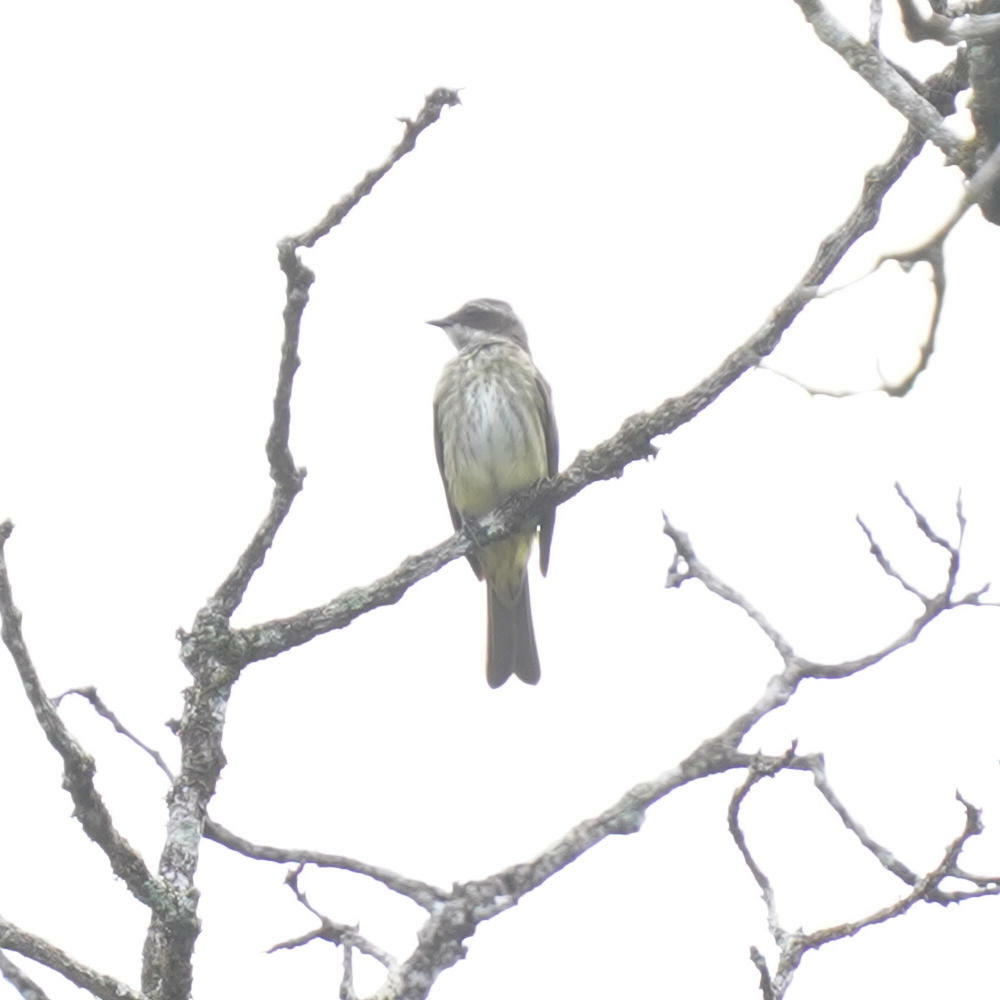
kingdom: Animalia
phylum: Chordata
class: Aves
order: Passeriformes
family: Tyrannidae
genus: Legatus
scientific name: Legatus leucophaius
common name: Piratic flycatcher
